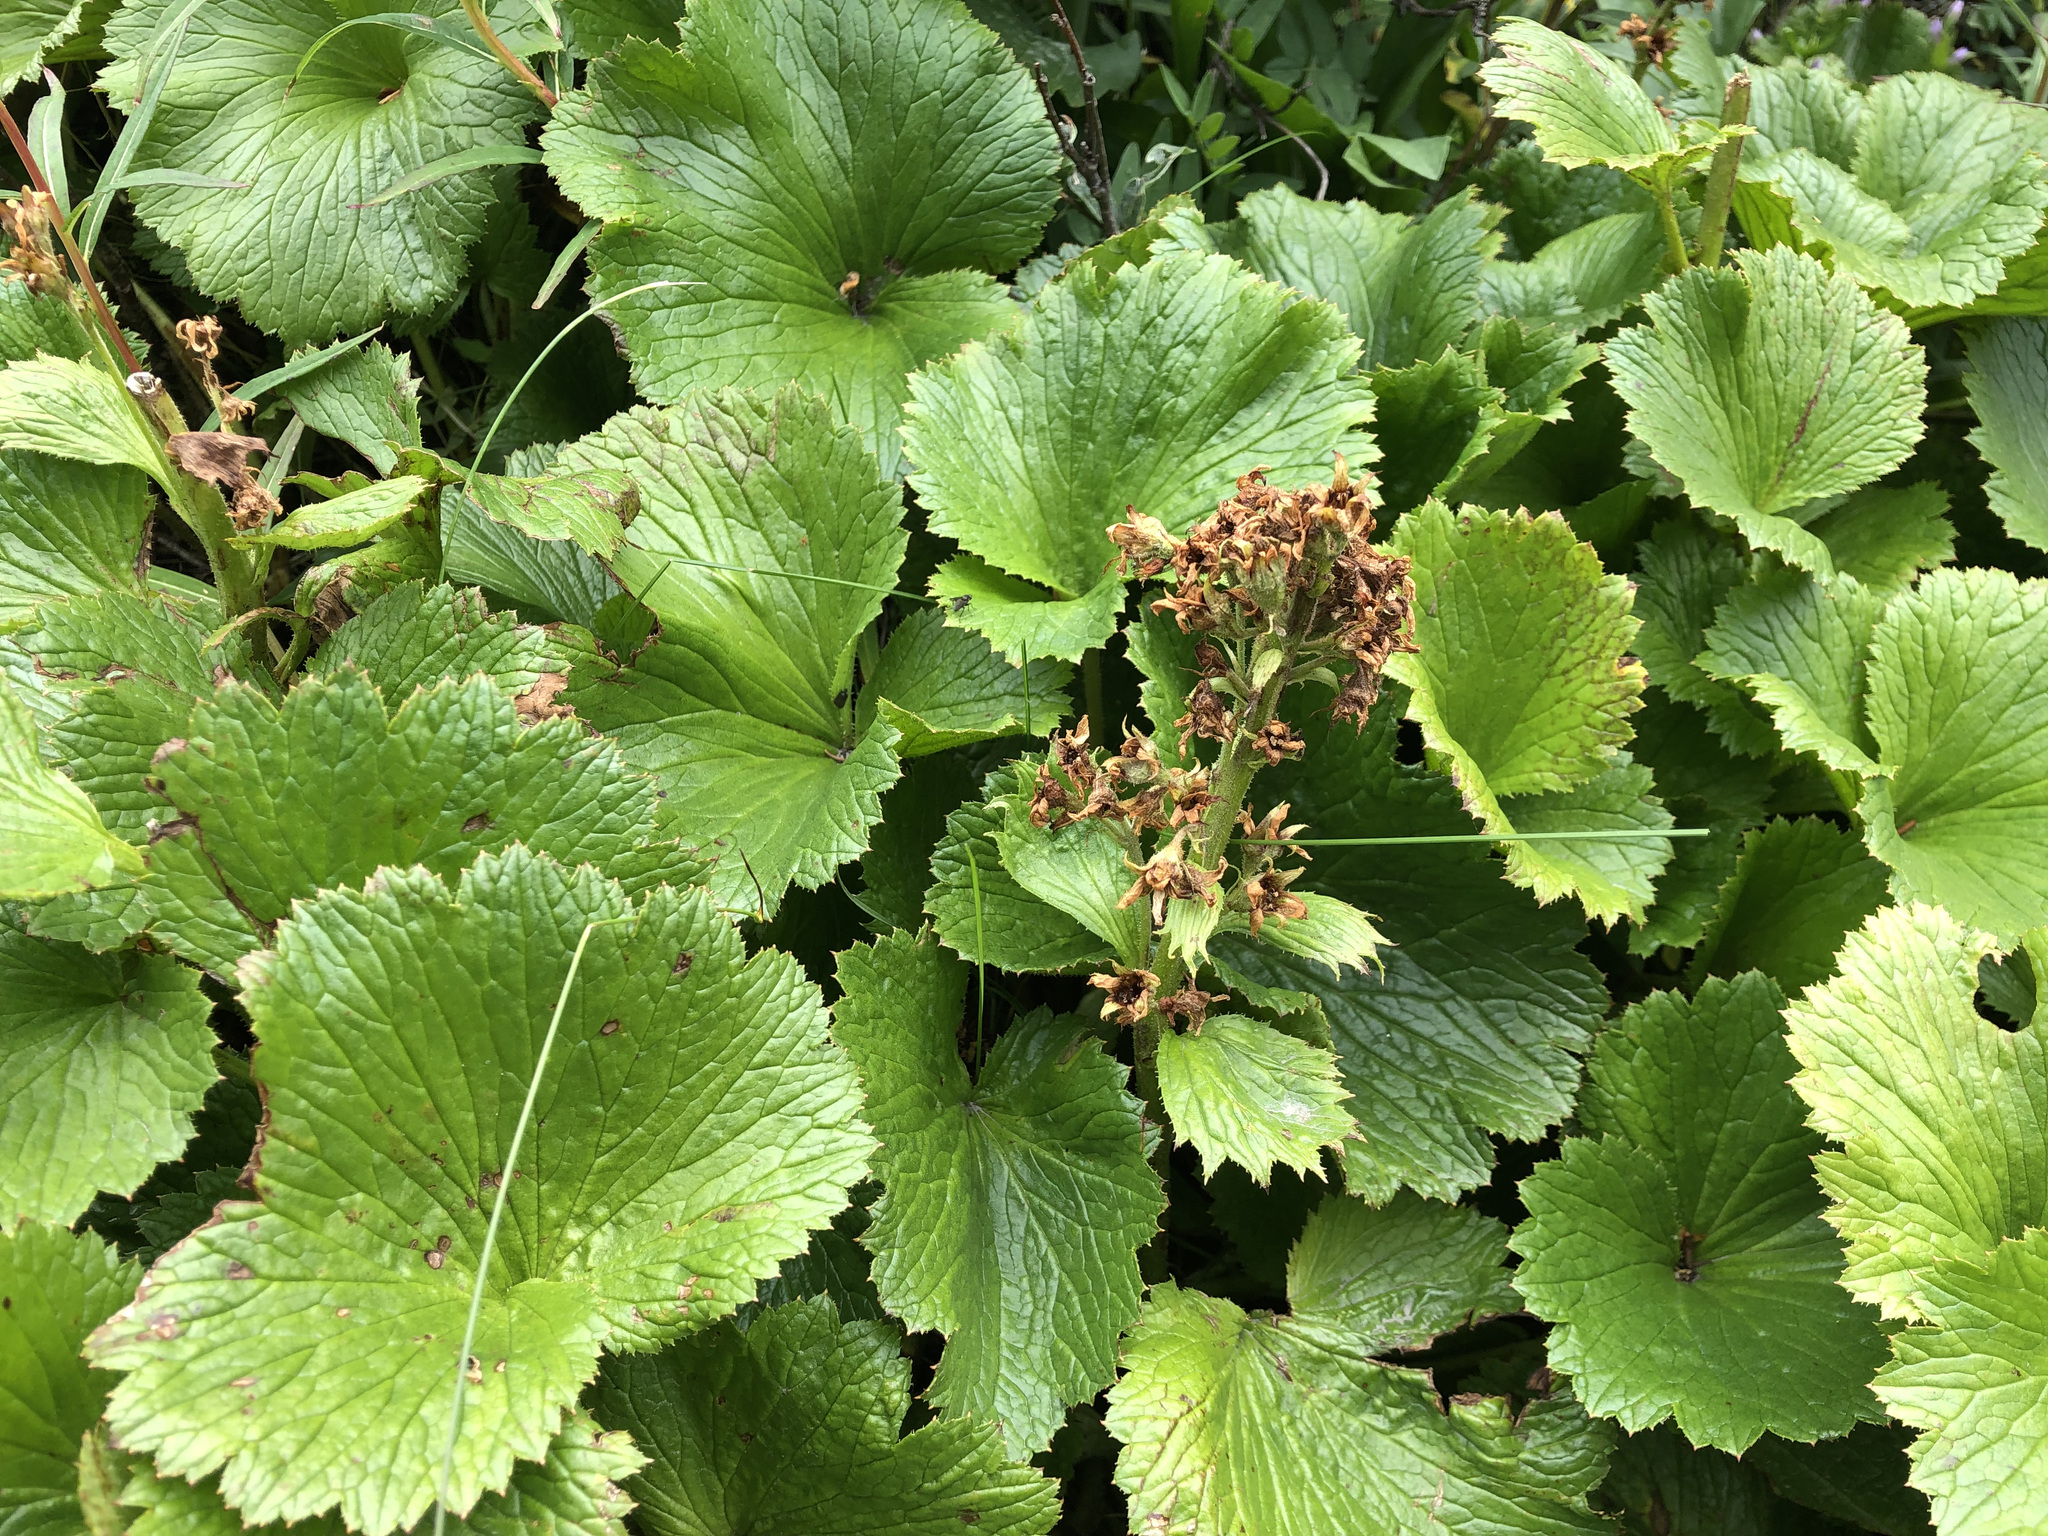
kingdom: Plantae
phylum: Tracheophyta
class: Magnoliopsida
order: Saxifragales
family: Saxifragaceae
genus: Boykinia
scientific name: Boykinia richardsonii
